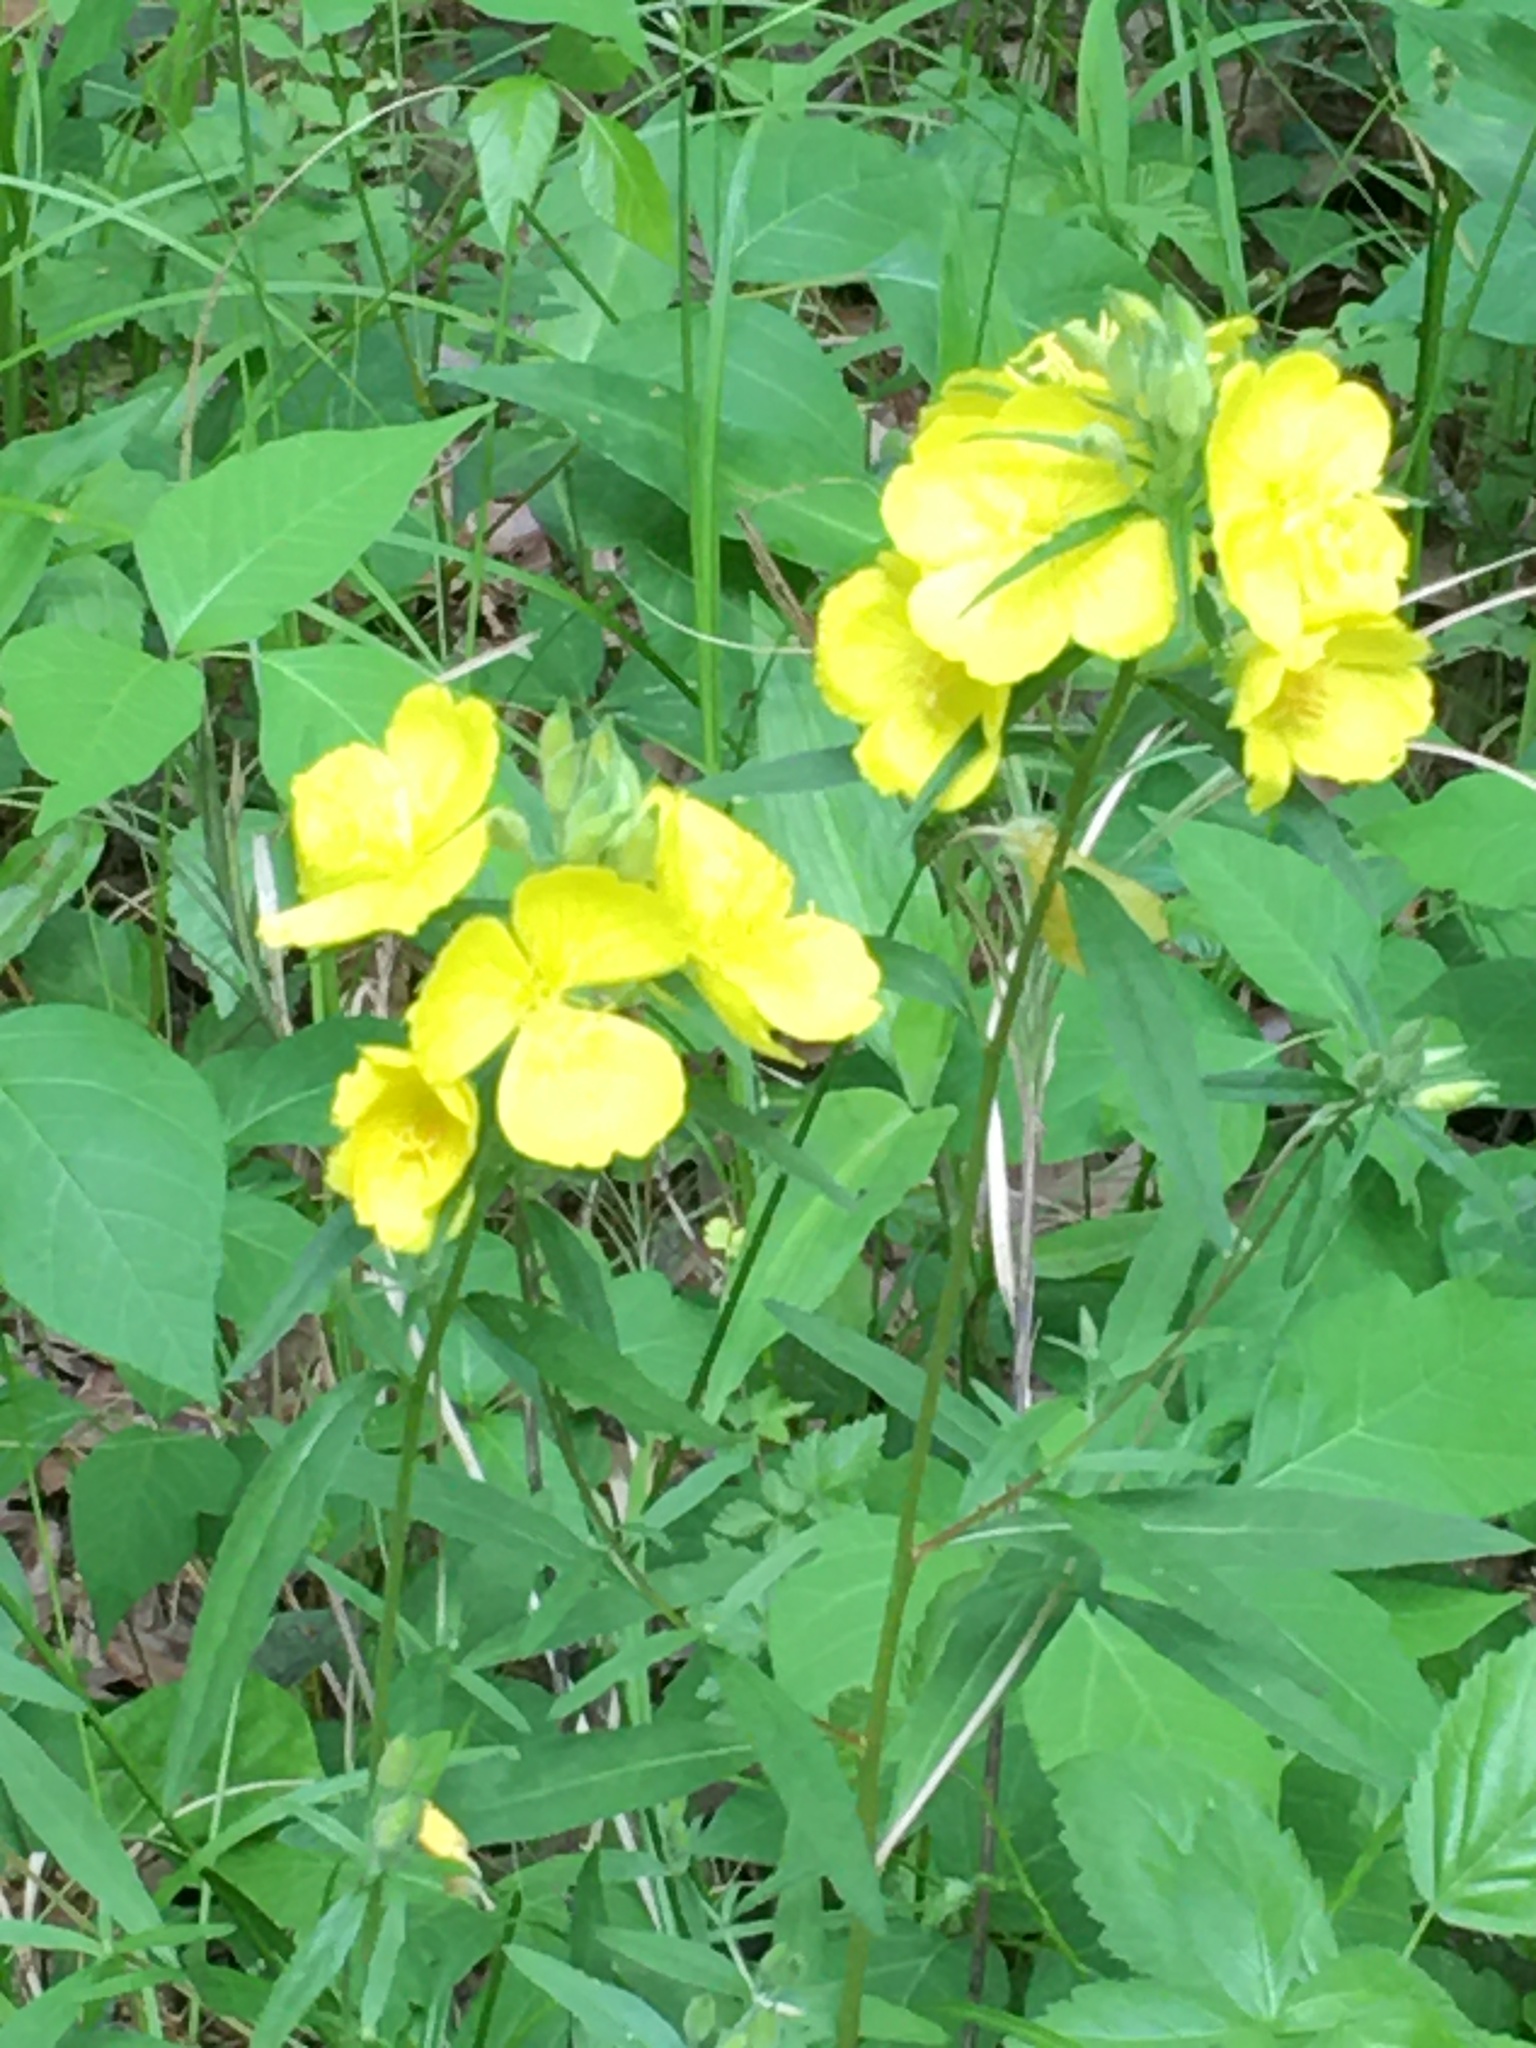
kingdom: Plantae
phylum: Tracheophyta
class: Magnoliopsida
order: Myrtales
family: Onagraceae
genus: Oenothera
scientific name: Oenothera fruticosa
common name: Southern sundrops
